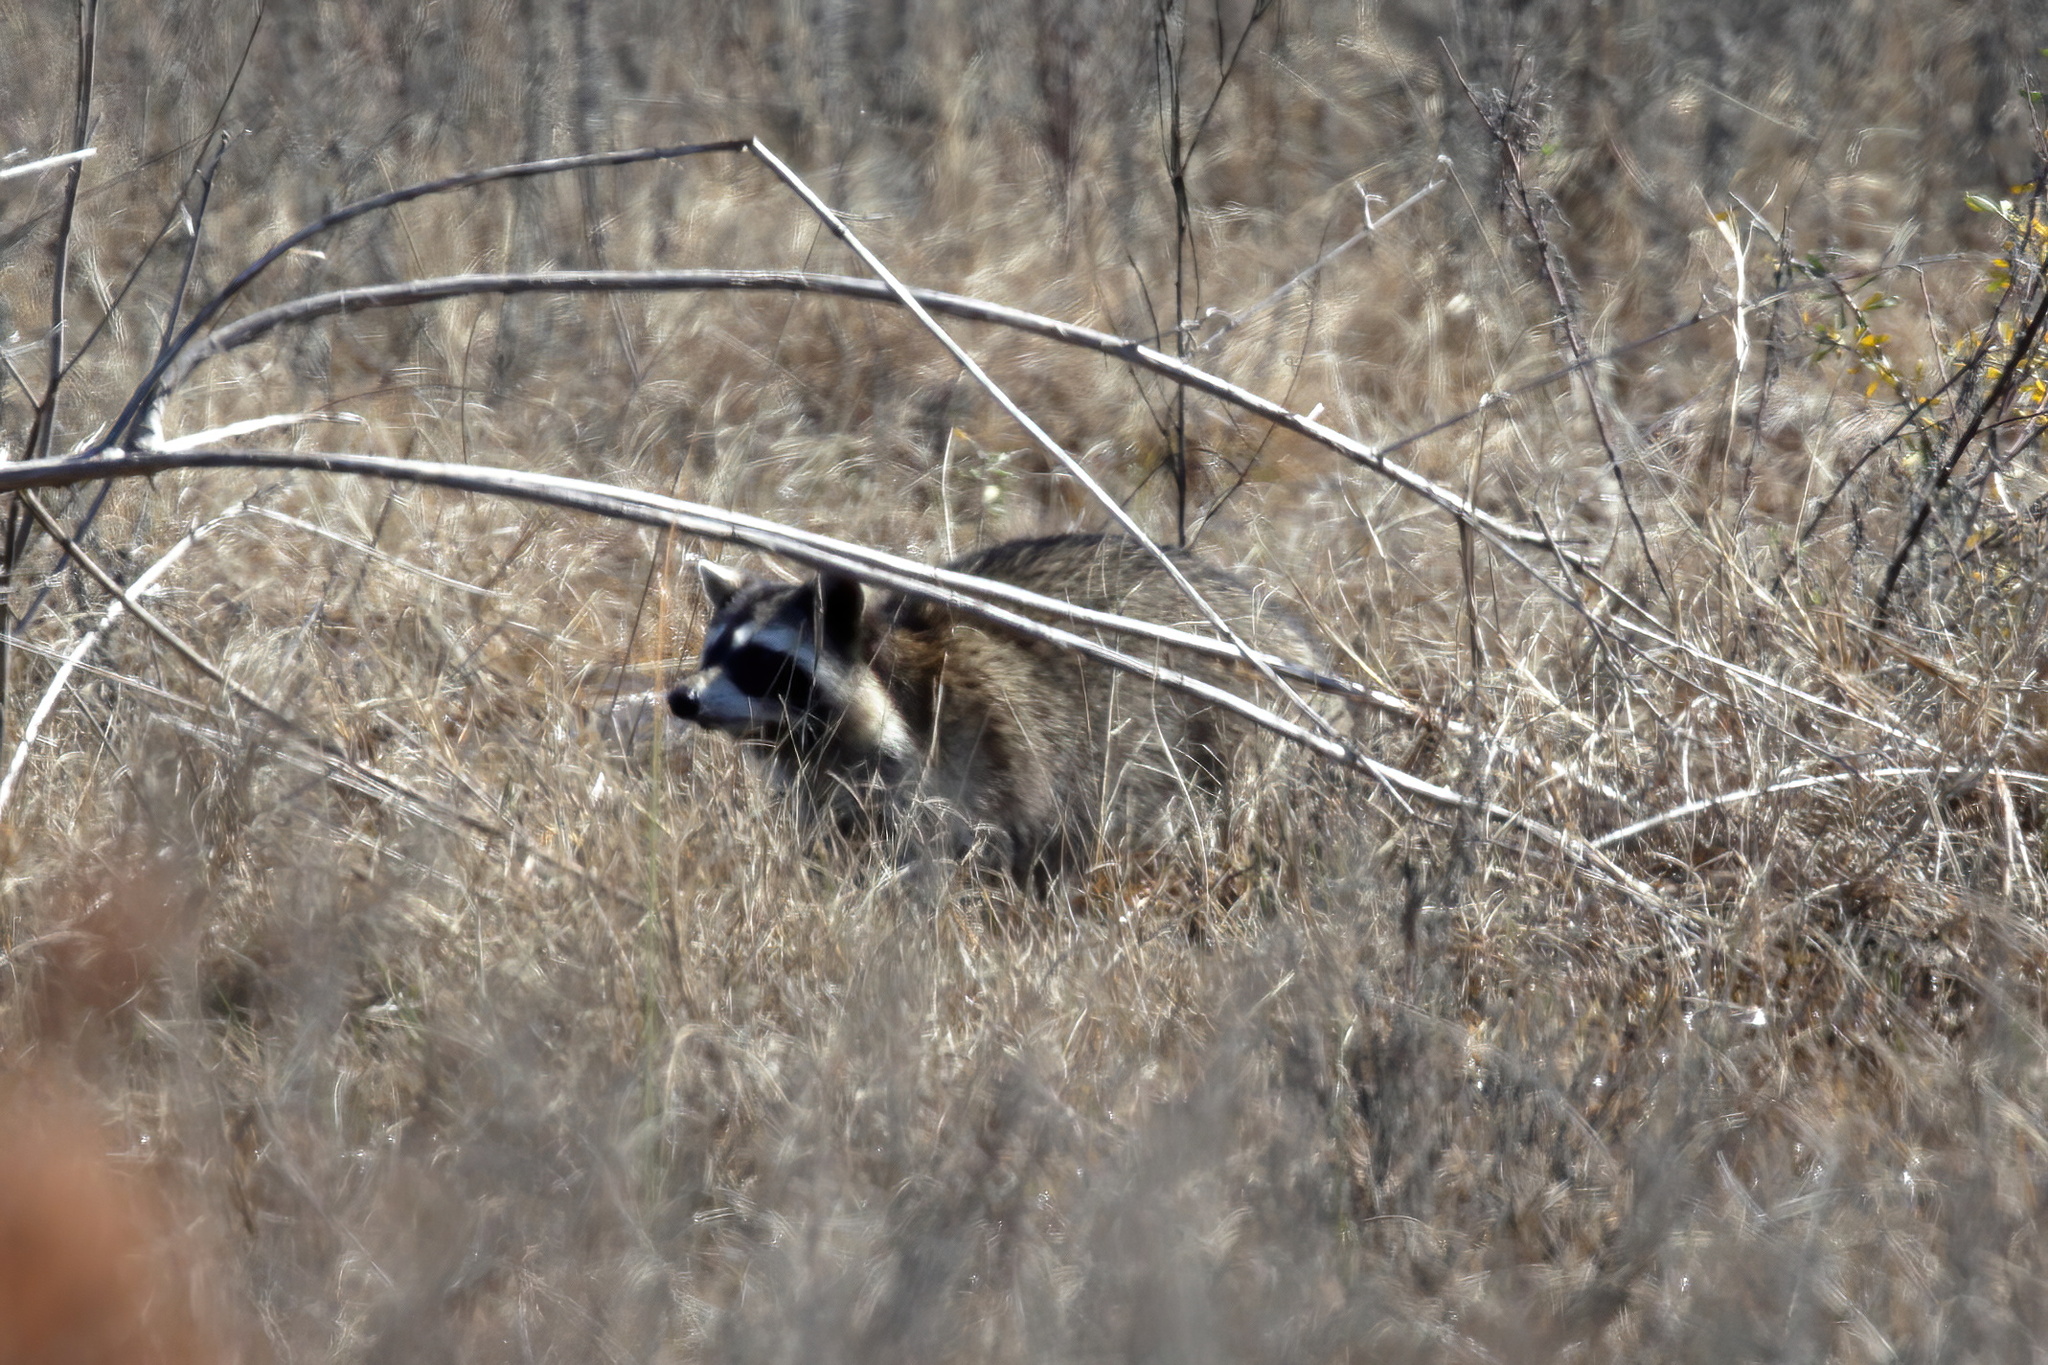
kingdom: Animalia
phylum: Chordata
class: Mammalia
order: Carnivora
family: Procyonidae
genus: Procyon
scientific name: Procyon lotor
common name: Raccoon
